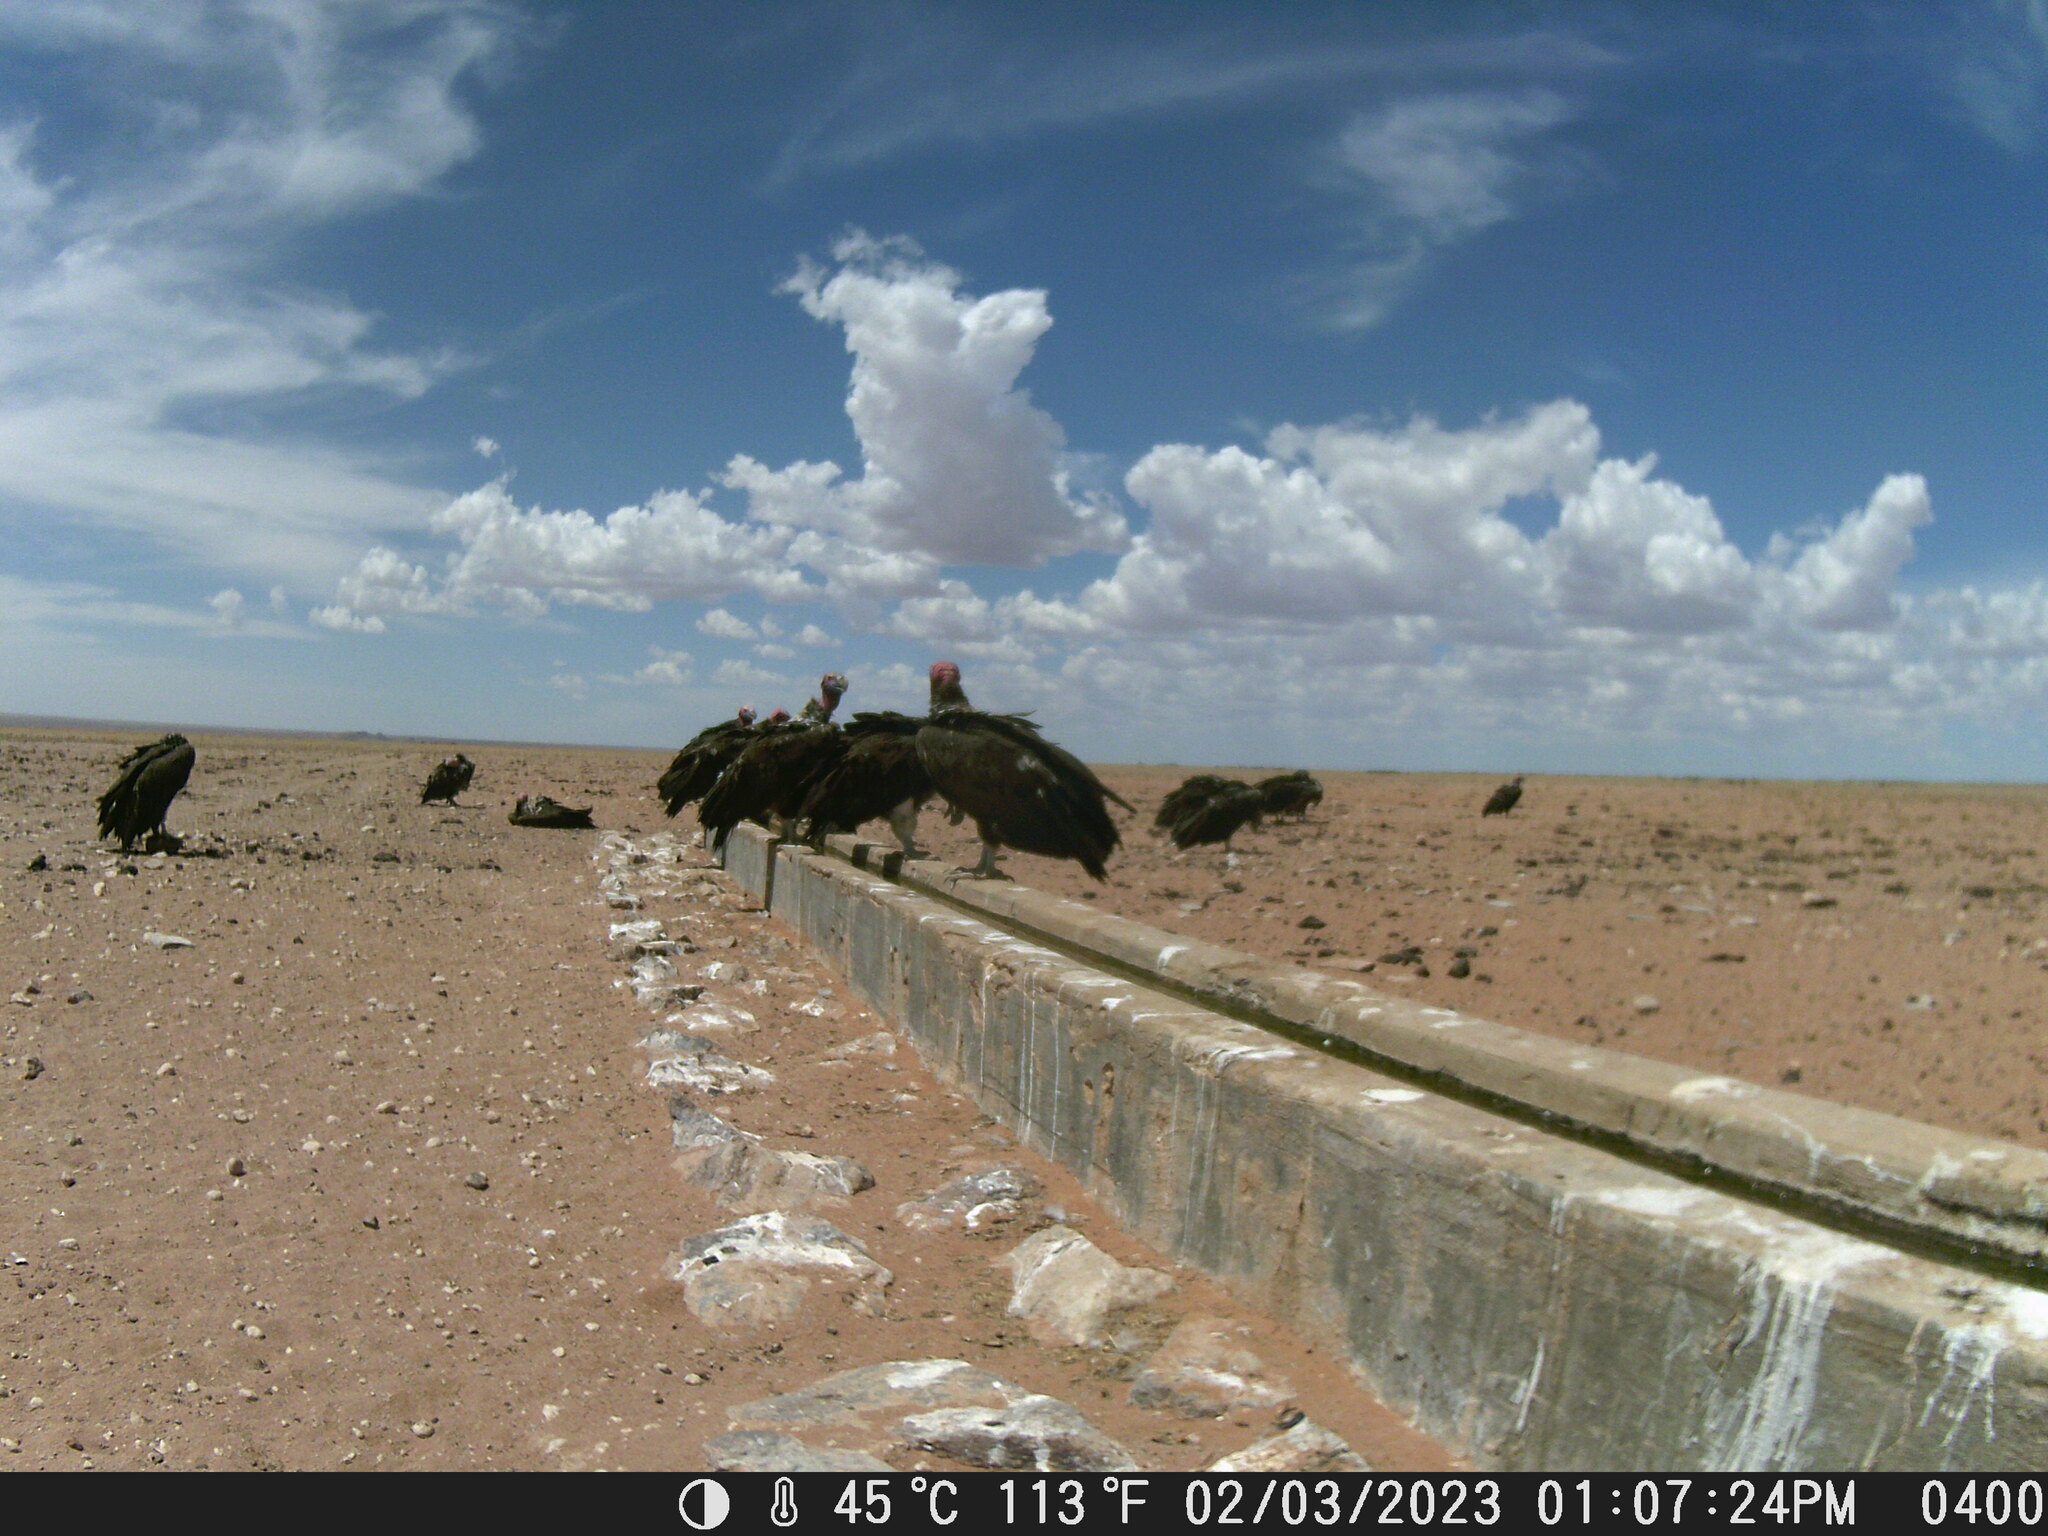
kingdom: Animalia
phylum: Chordata
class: Aves
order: Accipitriformes
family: Accipitridae
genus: Torgos
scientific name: Torgos tracheliotos
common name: Lappet-faced vulture
